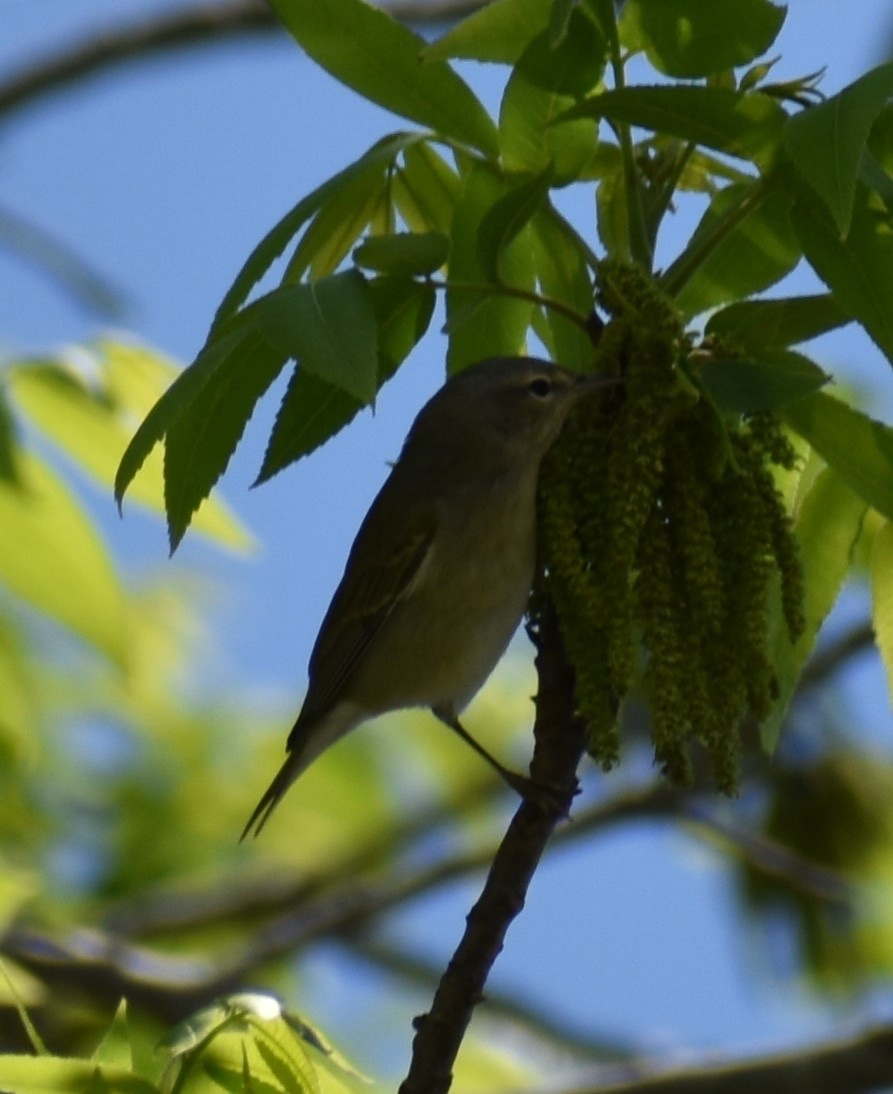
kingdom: Animalia
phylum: Chordata
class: Aves
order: Passeriformes
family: Parulidae
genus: Leiothlypis
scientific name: Leiothlypis peregrina
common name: Tennessee warbler
